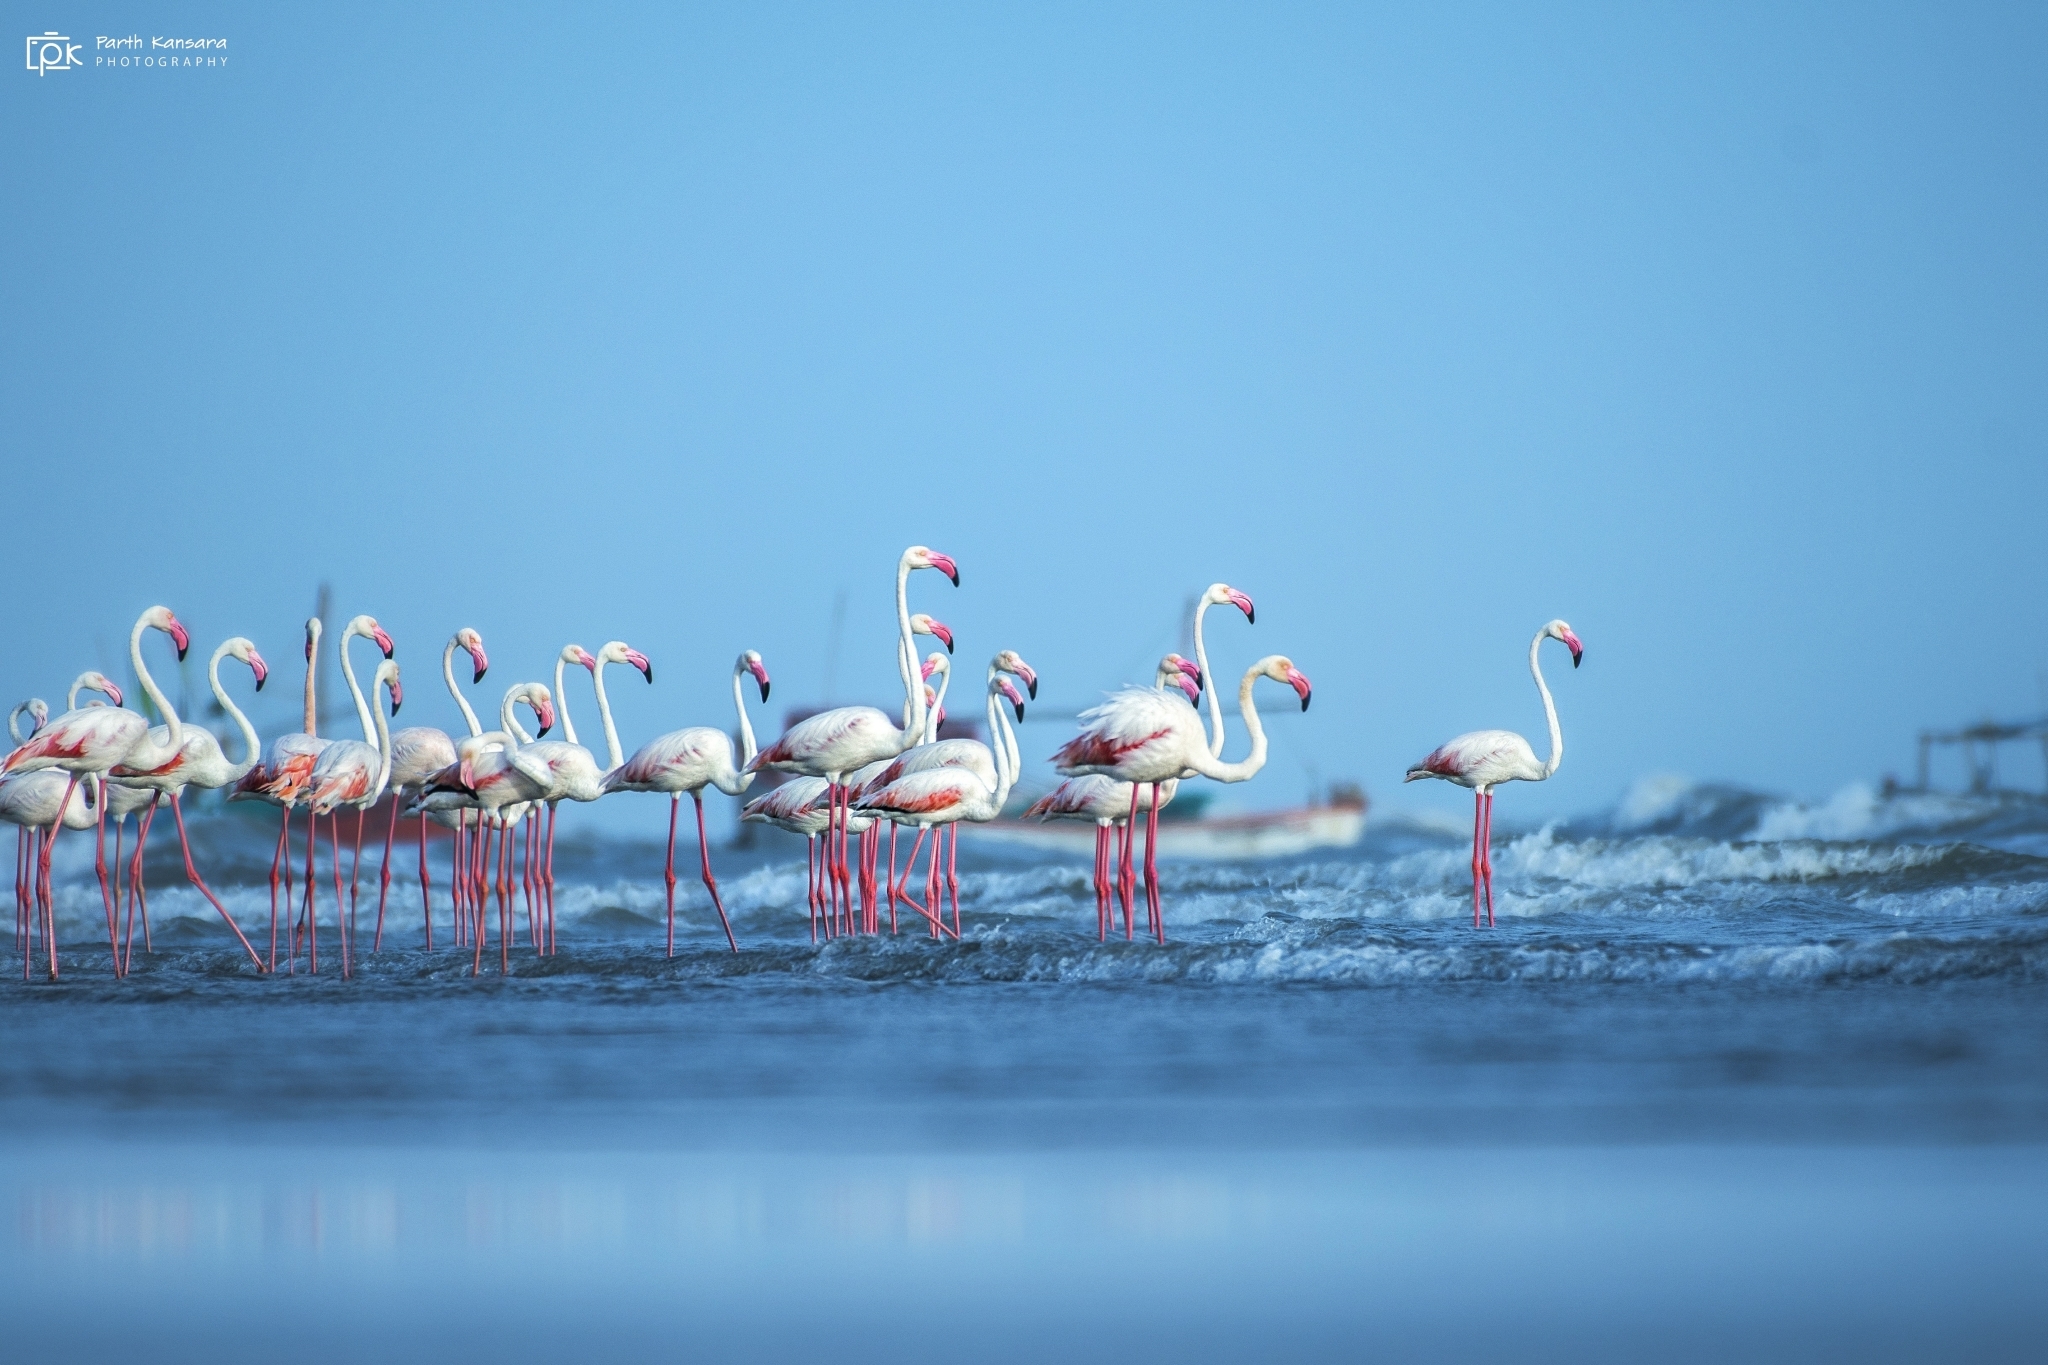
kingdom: Animalia
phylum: Chordata
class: Aves
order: Phoenicopteriformes
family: Phoenicopteridae
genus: Phoenicopterus
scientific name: Phoenicopterus roseus
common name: Greater flamingo
